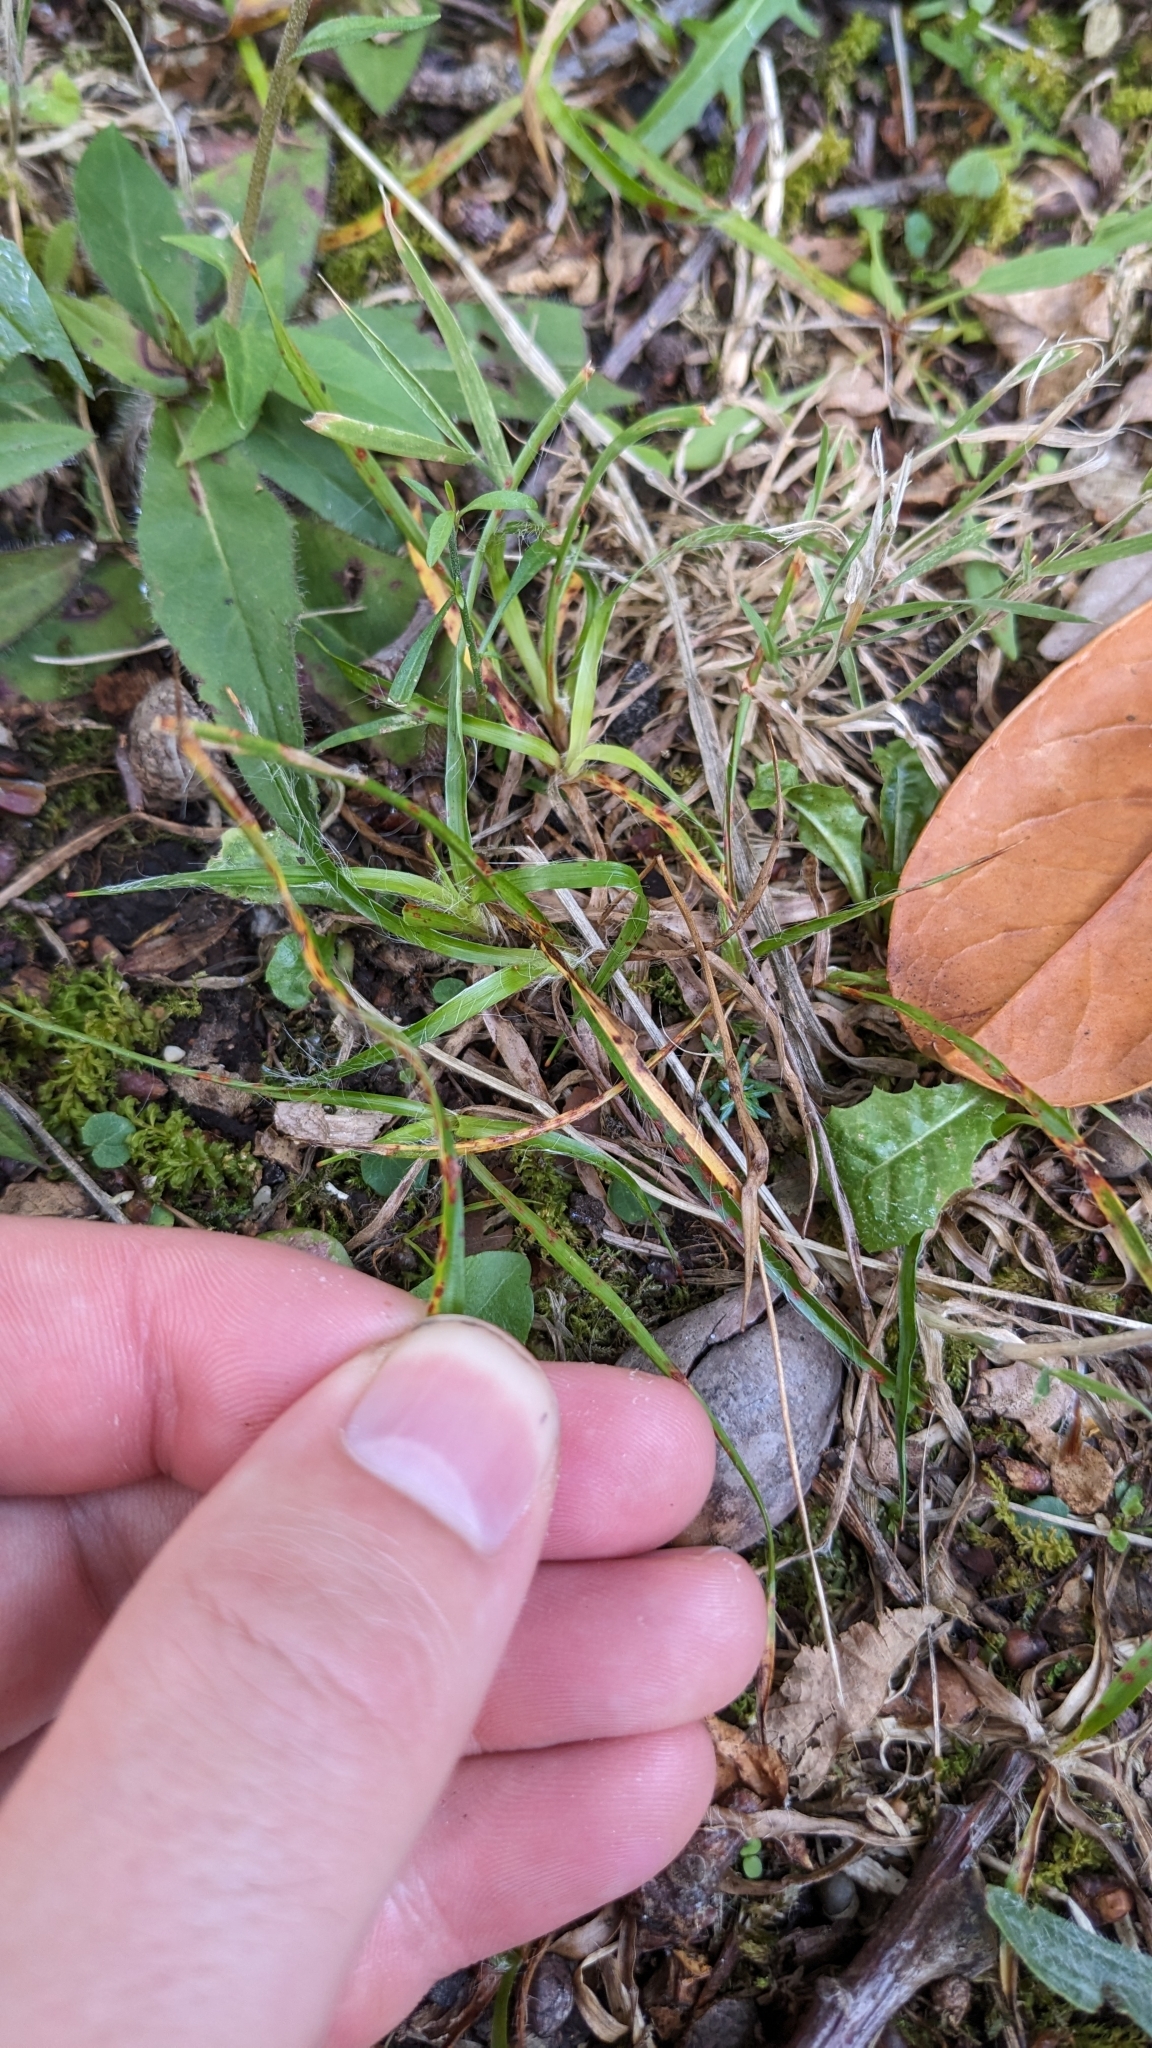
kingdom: Plantae
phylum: Tracheophyta
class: Liliopsida
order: Poales
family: Juncaceae
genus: Luzula
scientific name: Luzula campestris
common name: Field wood-rush
